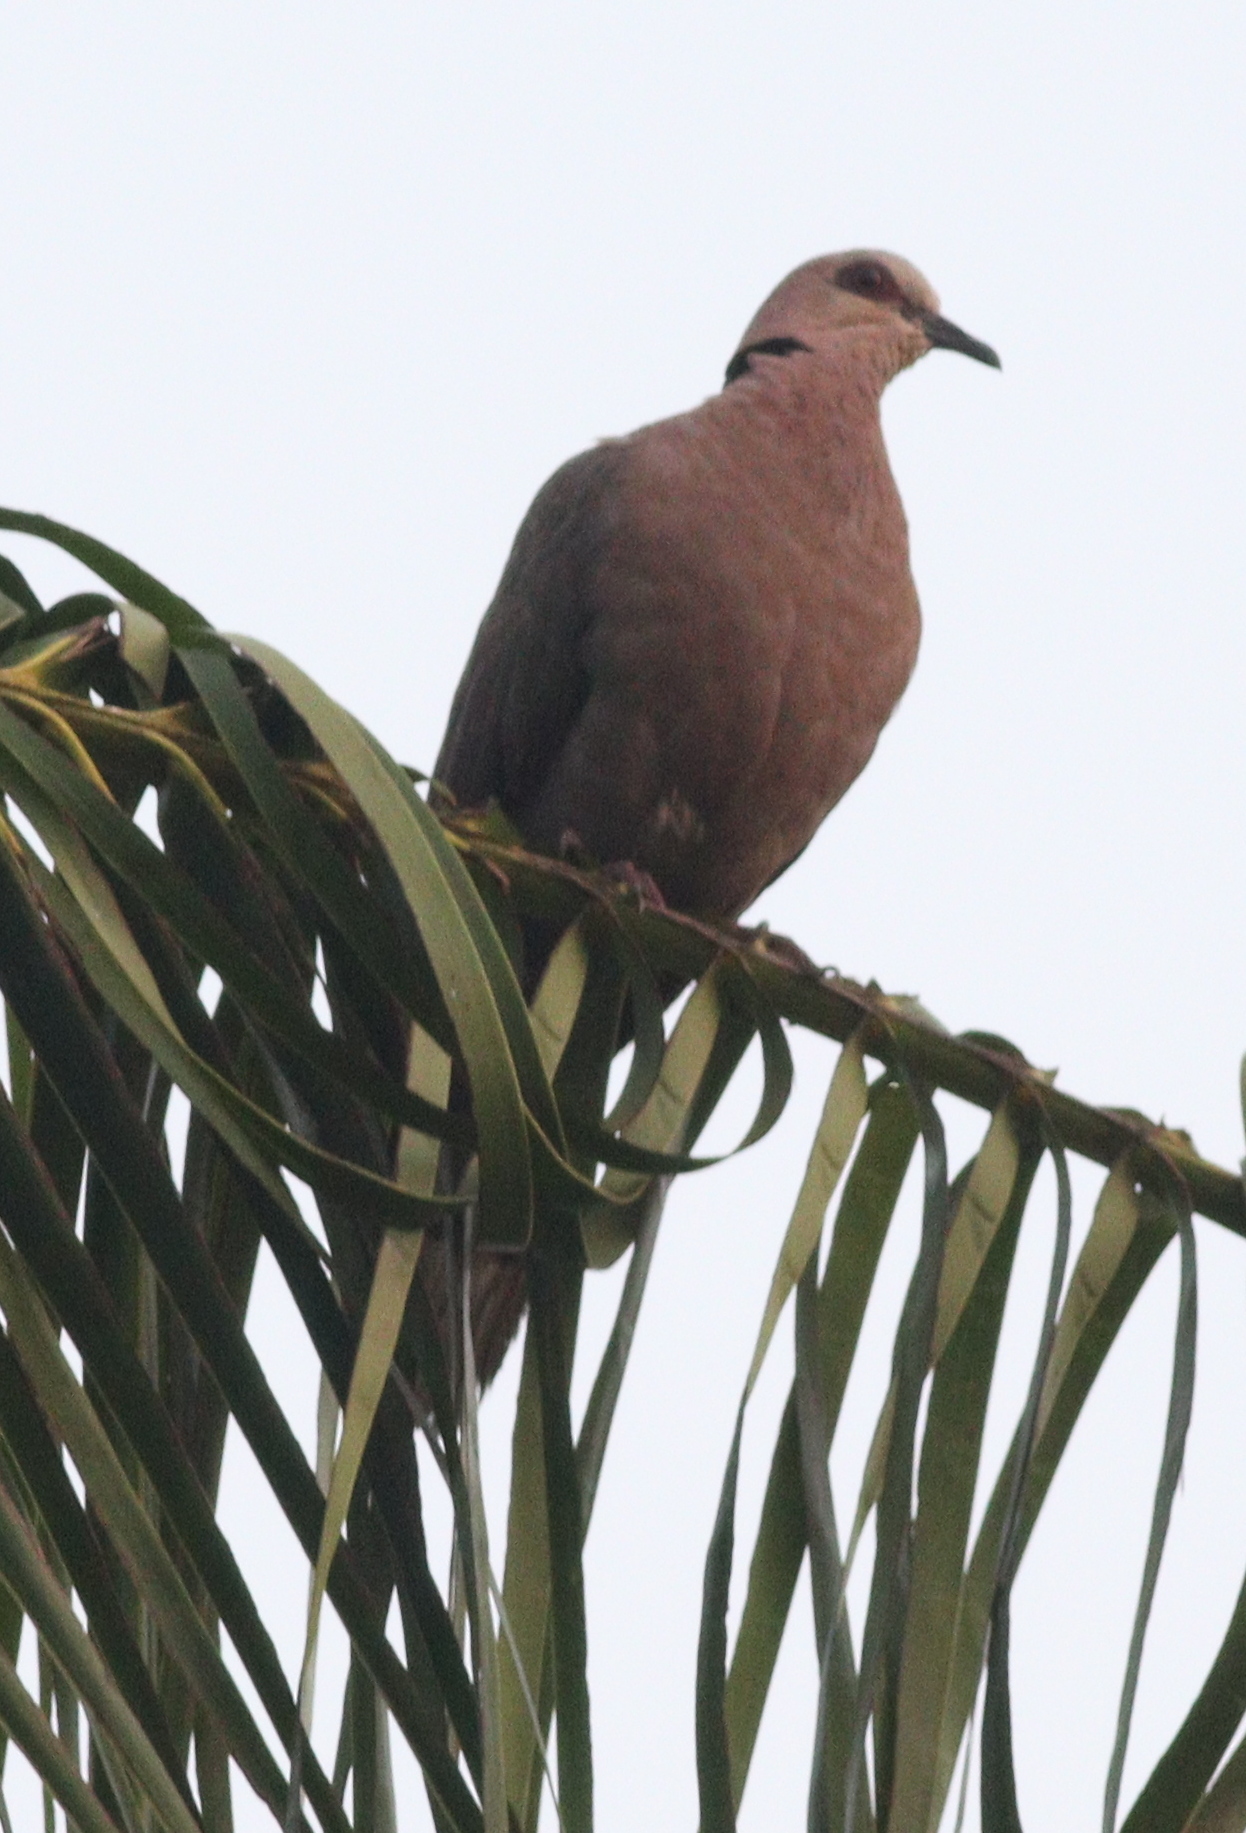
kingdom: Animalia
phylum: Chordata
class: Aves
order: Columbiformes
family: Columbidae
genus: Streptopelia
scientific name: Streptopelia semitorquata
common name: Red-eyed dove
